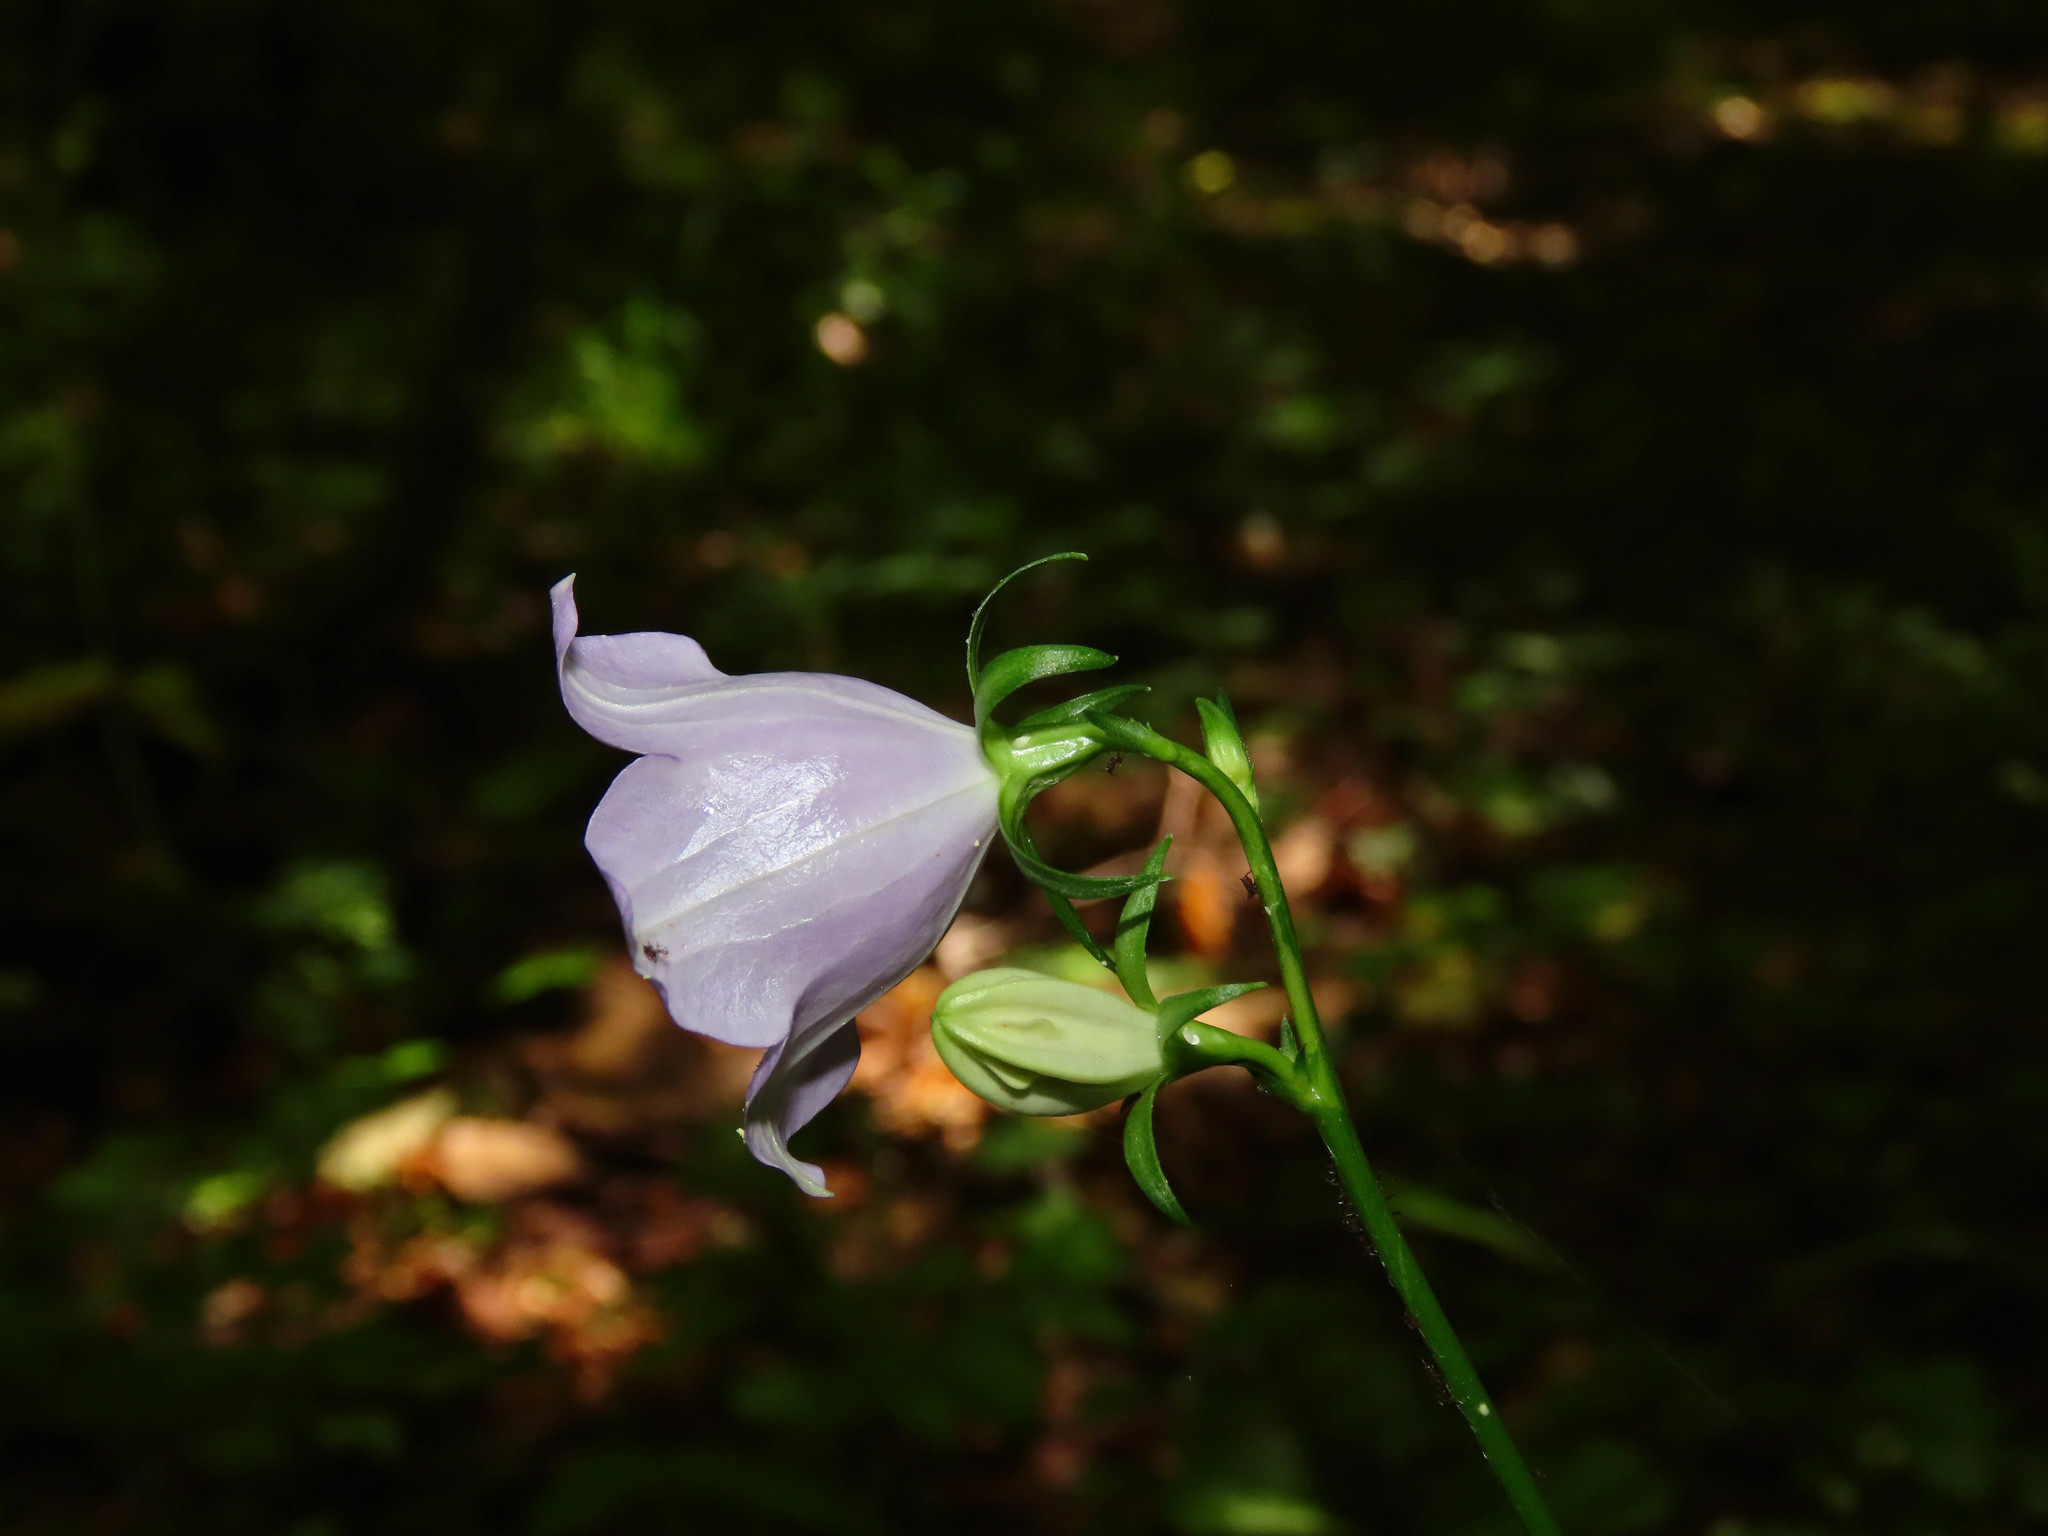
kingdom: Plantae
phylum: Tracheophyta
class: Magnoliopsida
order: Asterales
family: Campanulaceae
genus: Campanula
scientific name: Campanula persicifolia
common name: Peach-leaved bellflower
